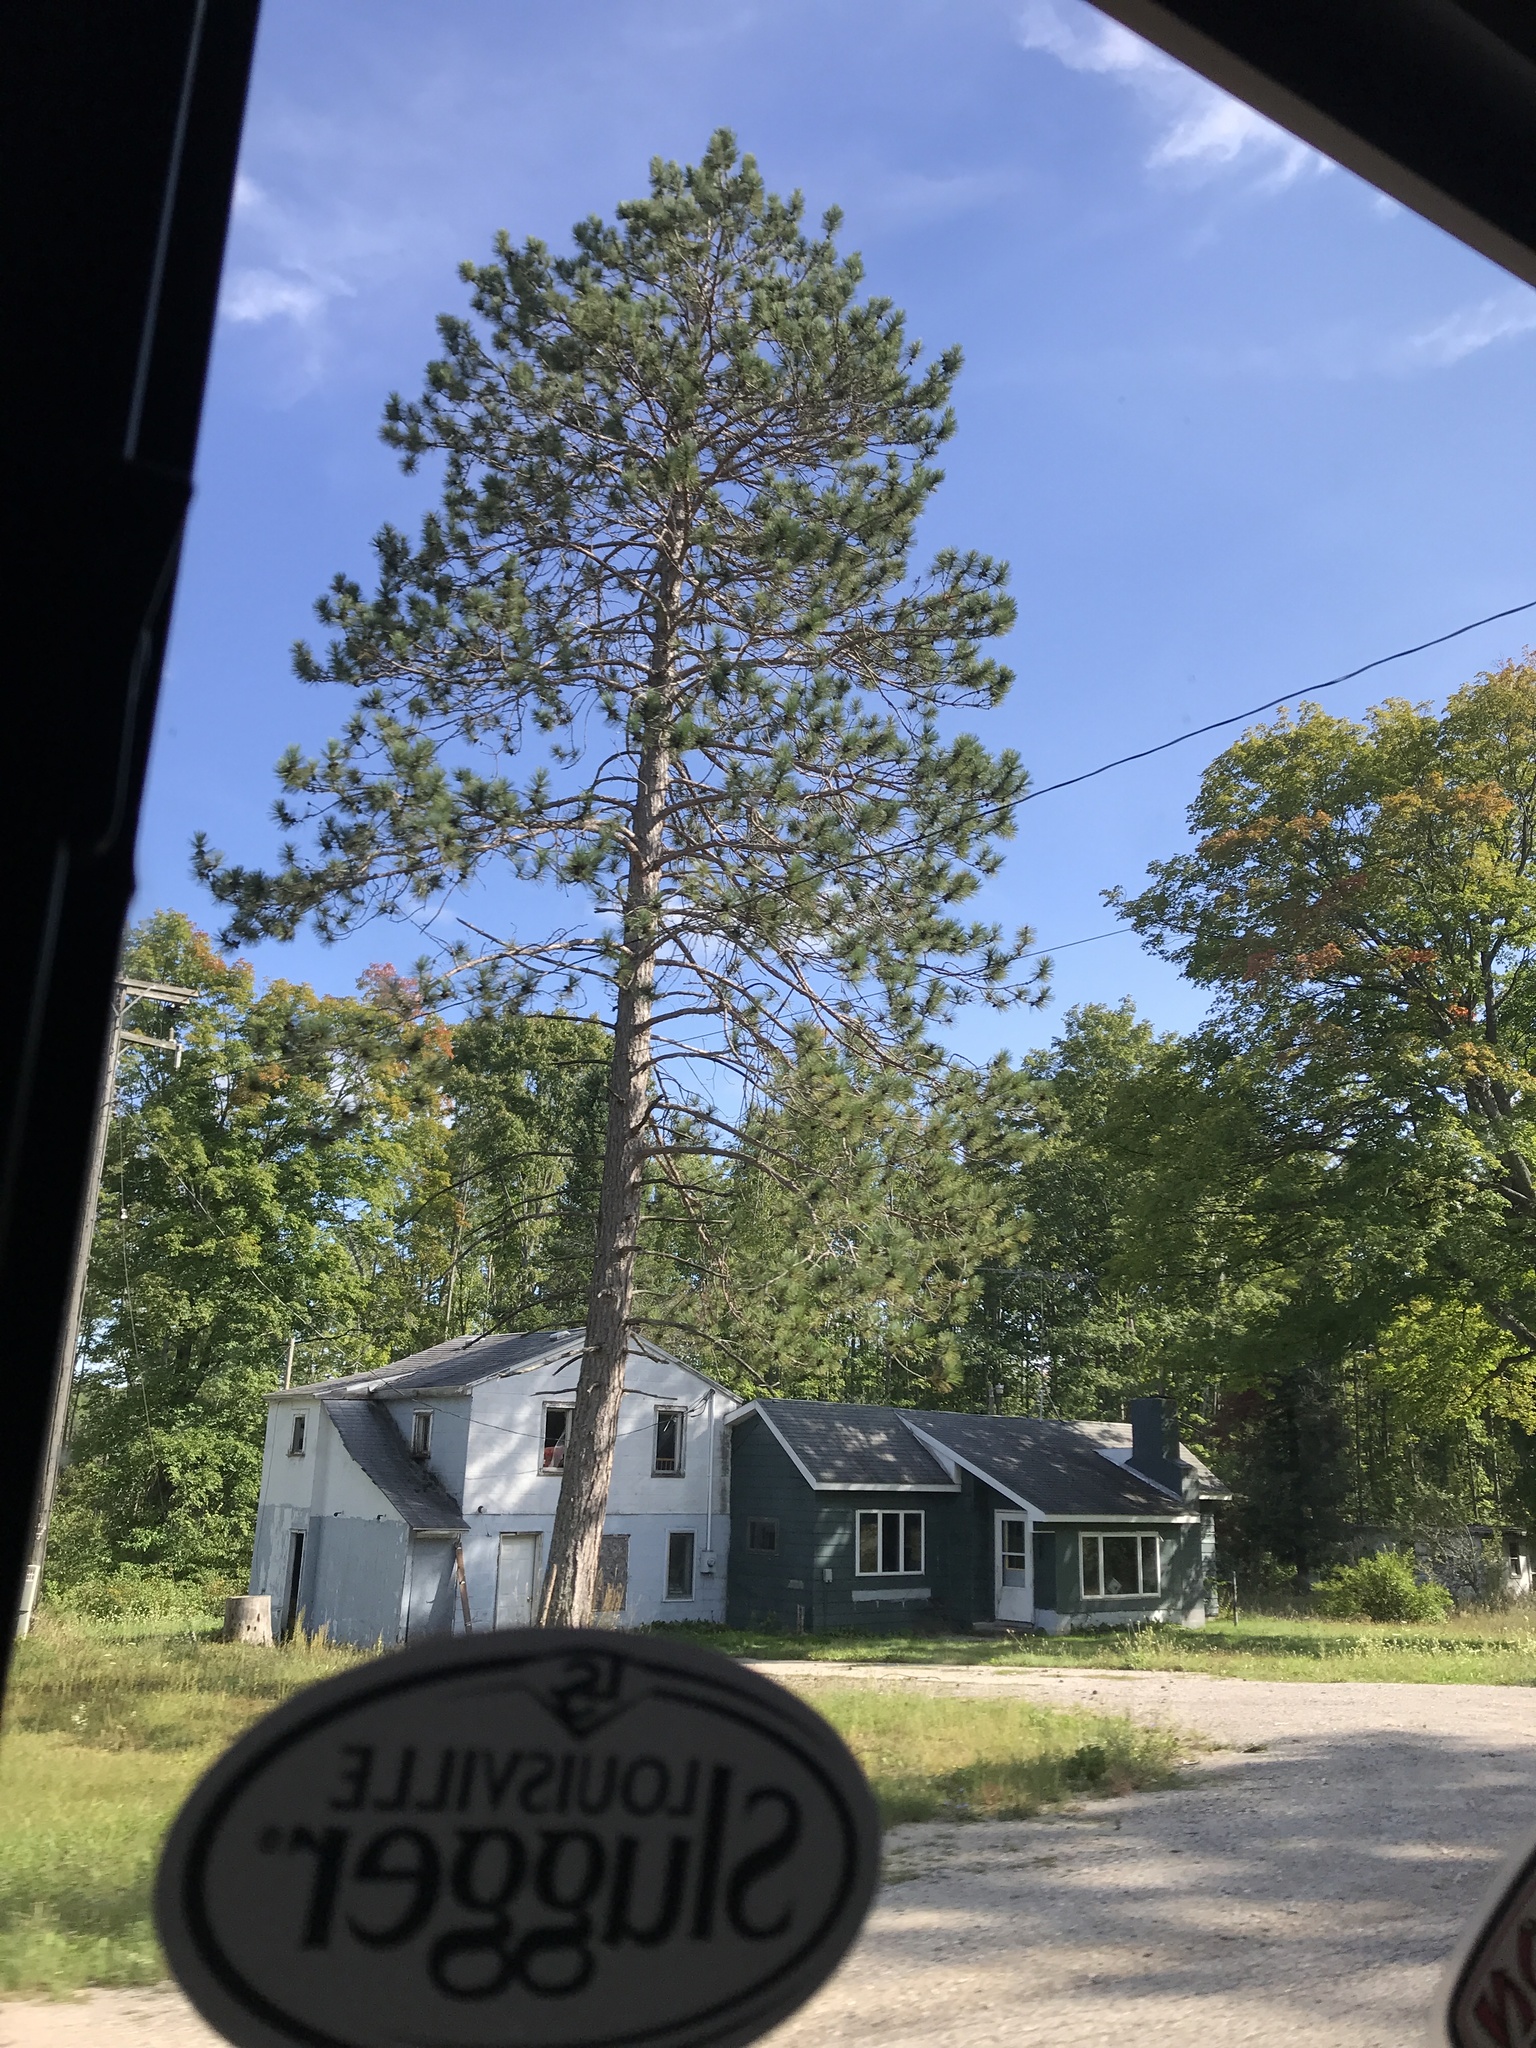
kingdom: Plantae
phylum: Tracheophyta
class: Pinopsida
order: Pinales
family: Pinaceae
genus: Pinus
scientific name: Pinus resinosa
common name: Norway pine
